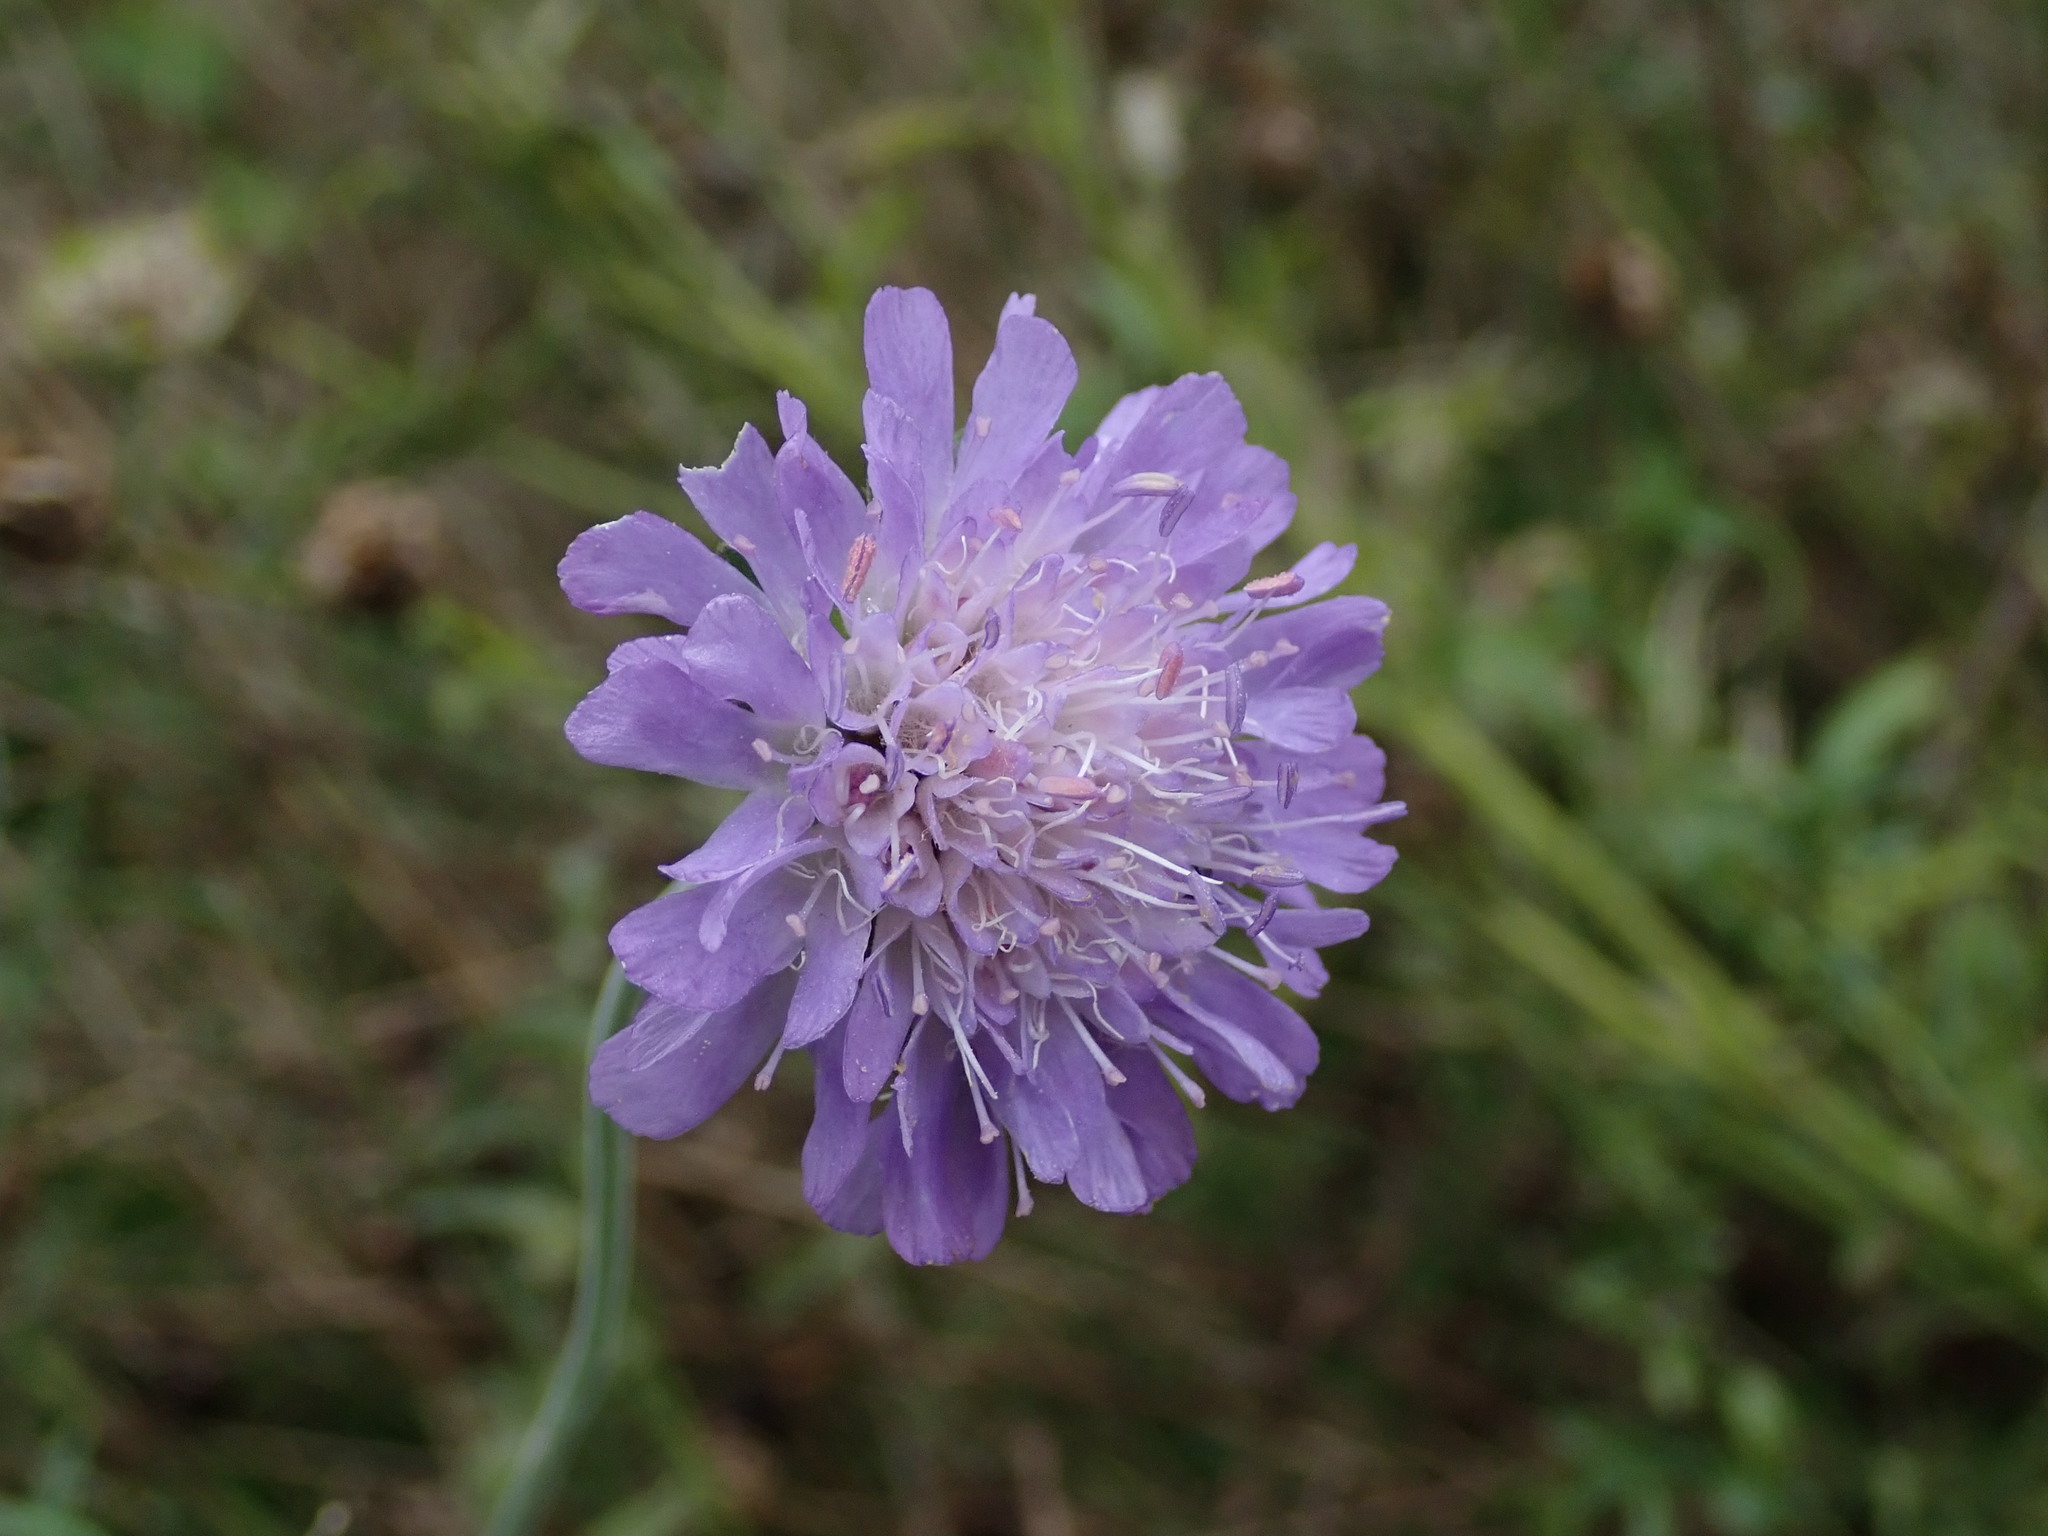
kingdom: Plantae
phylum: Tracheophyta
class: Magnoliopsida
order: Dipsacales
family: Caprifoliaceae
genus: Knautia
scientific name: Knautia arvensis
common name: Field scabiosa
